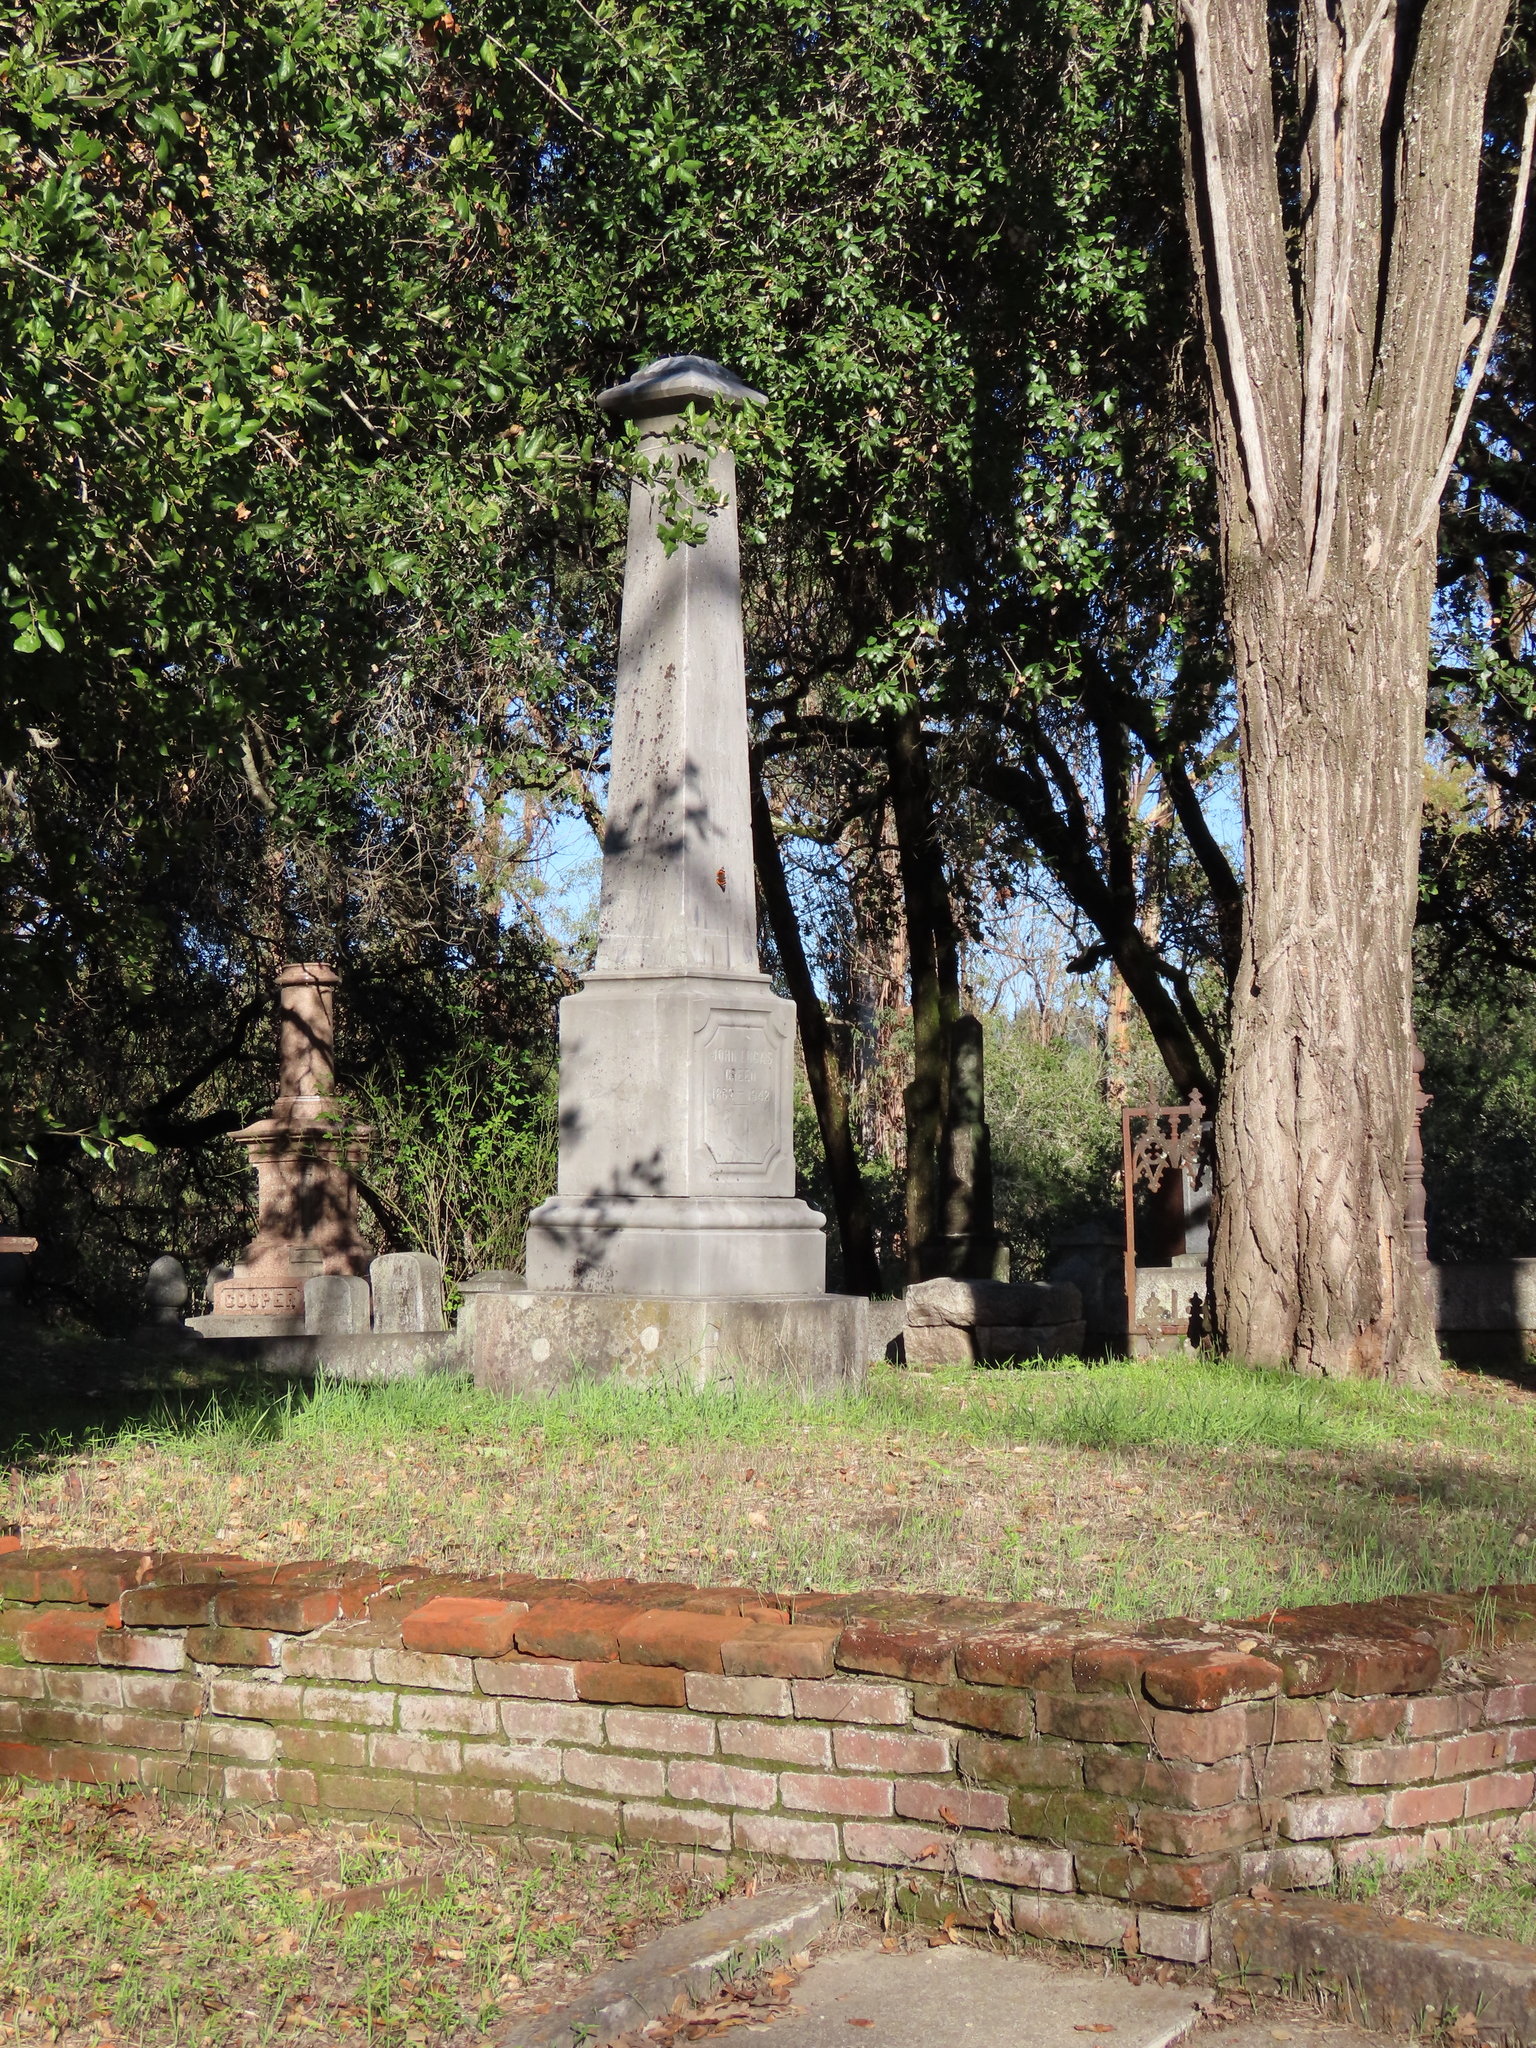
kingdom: Animalia
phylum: Arthropoda
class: Insecta
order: Lepidoptera
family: Nymphalidae
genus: Vanessa
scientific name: Vanessa atalanta
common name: Red admiral
